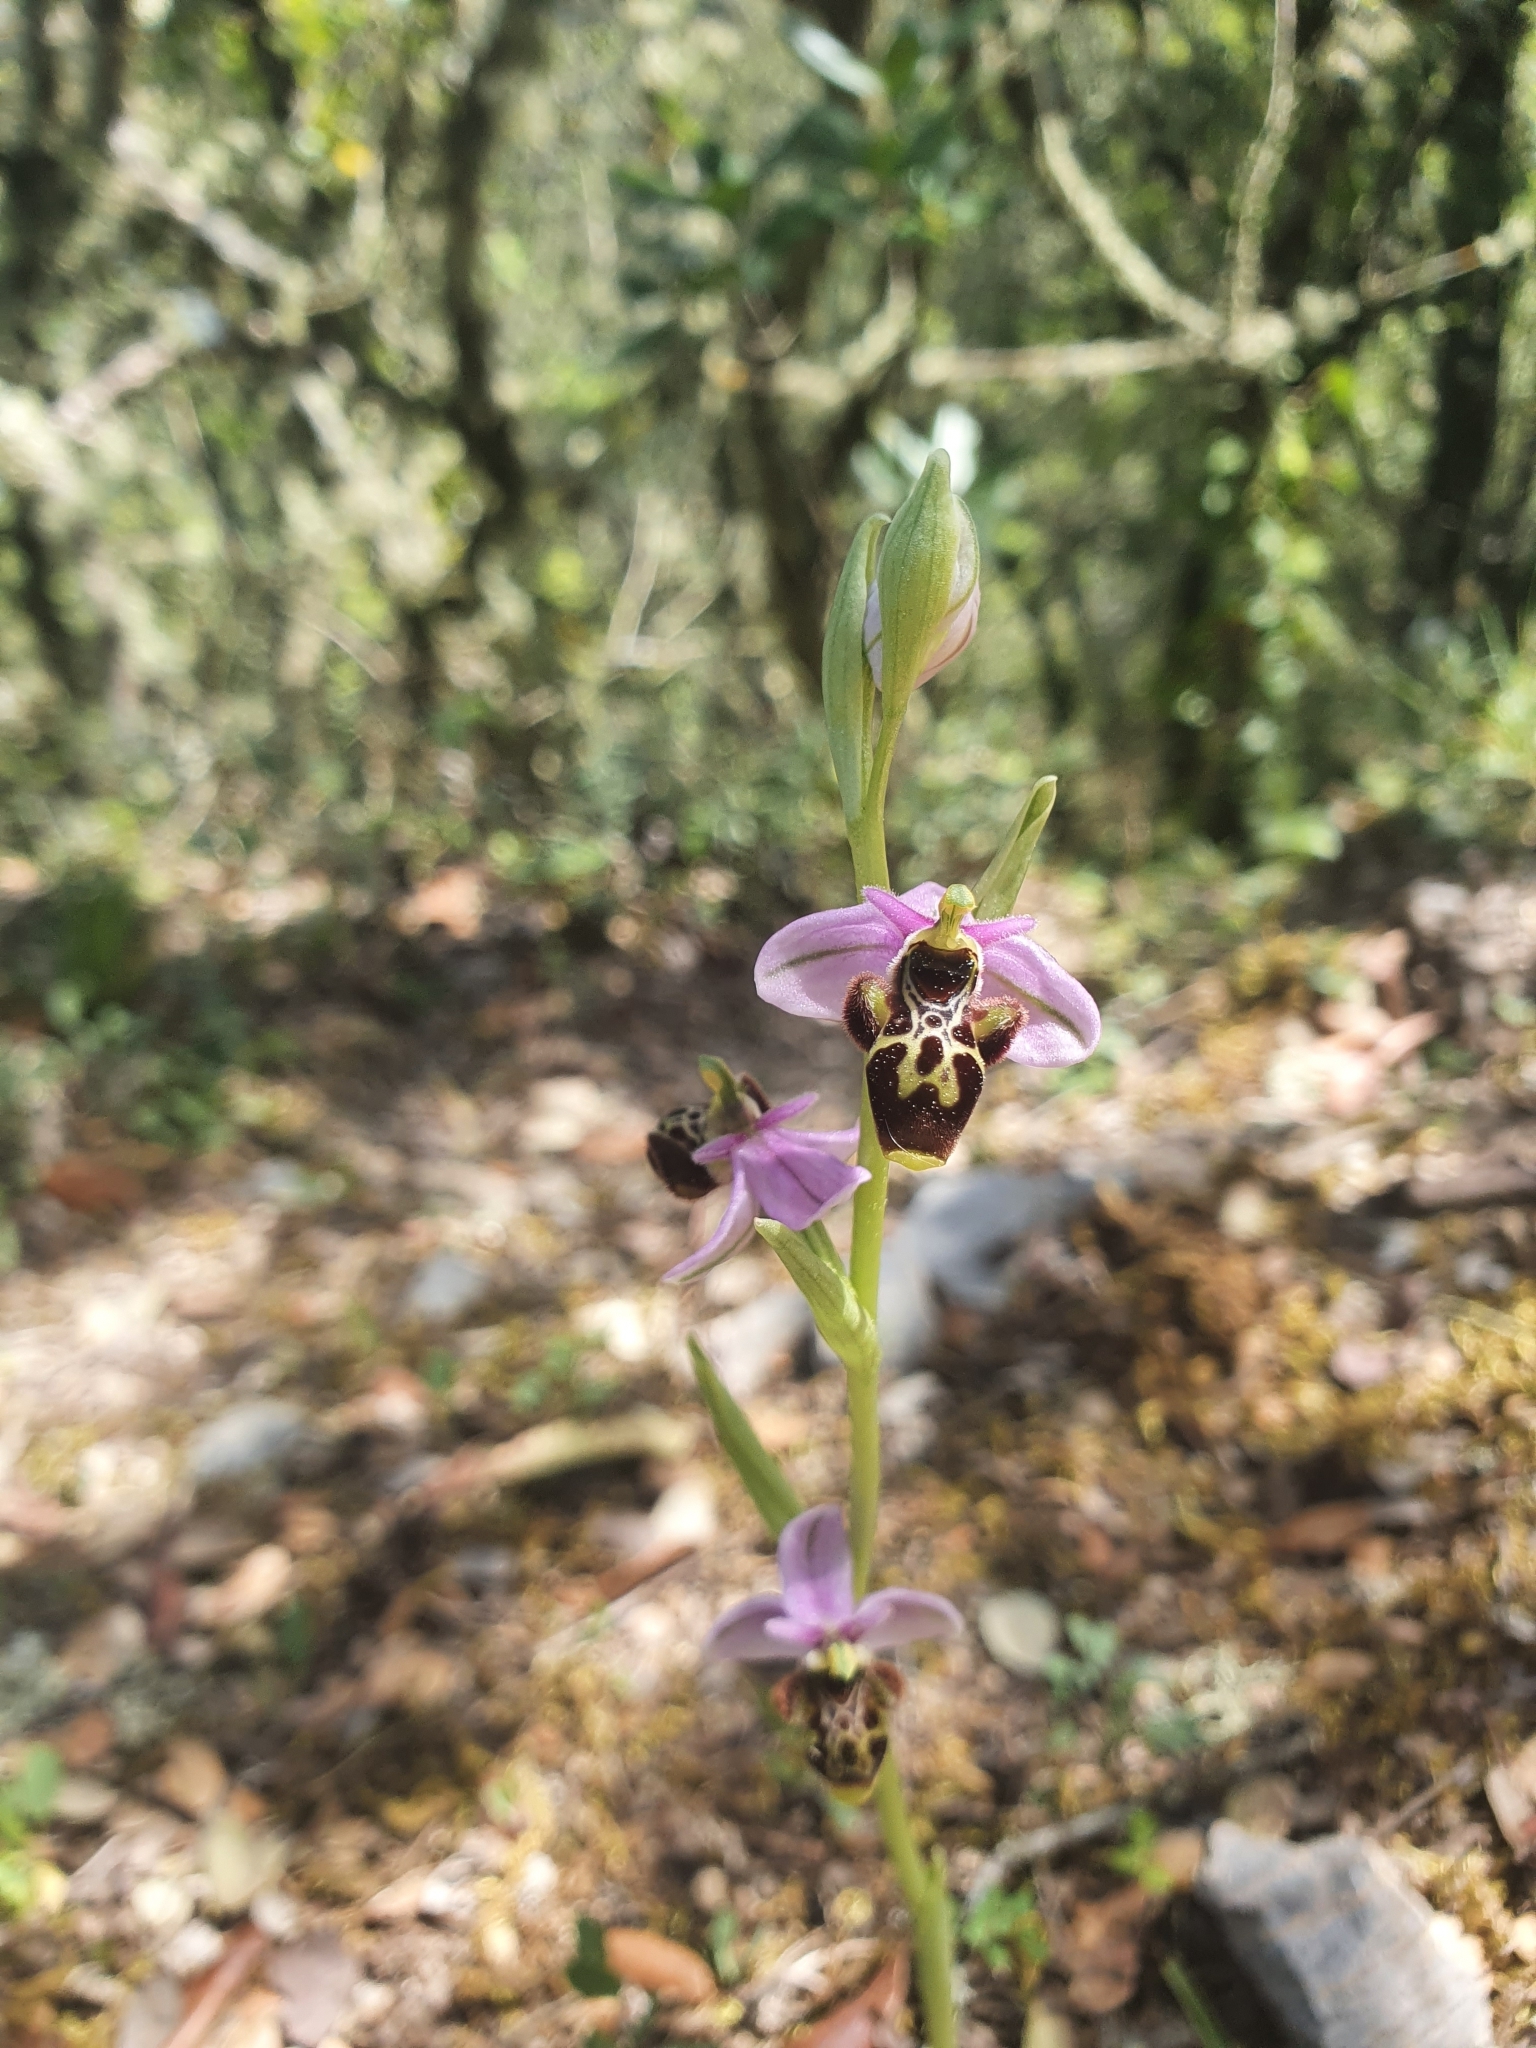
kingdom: Plantae
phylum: Tracheophyta
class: Liliopsida
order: Asparagales
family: Orchidaceae
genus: Ophrys
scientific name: Ophrys scolopax
